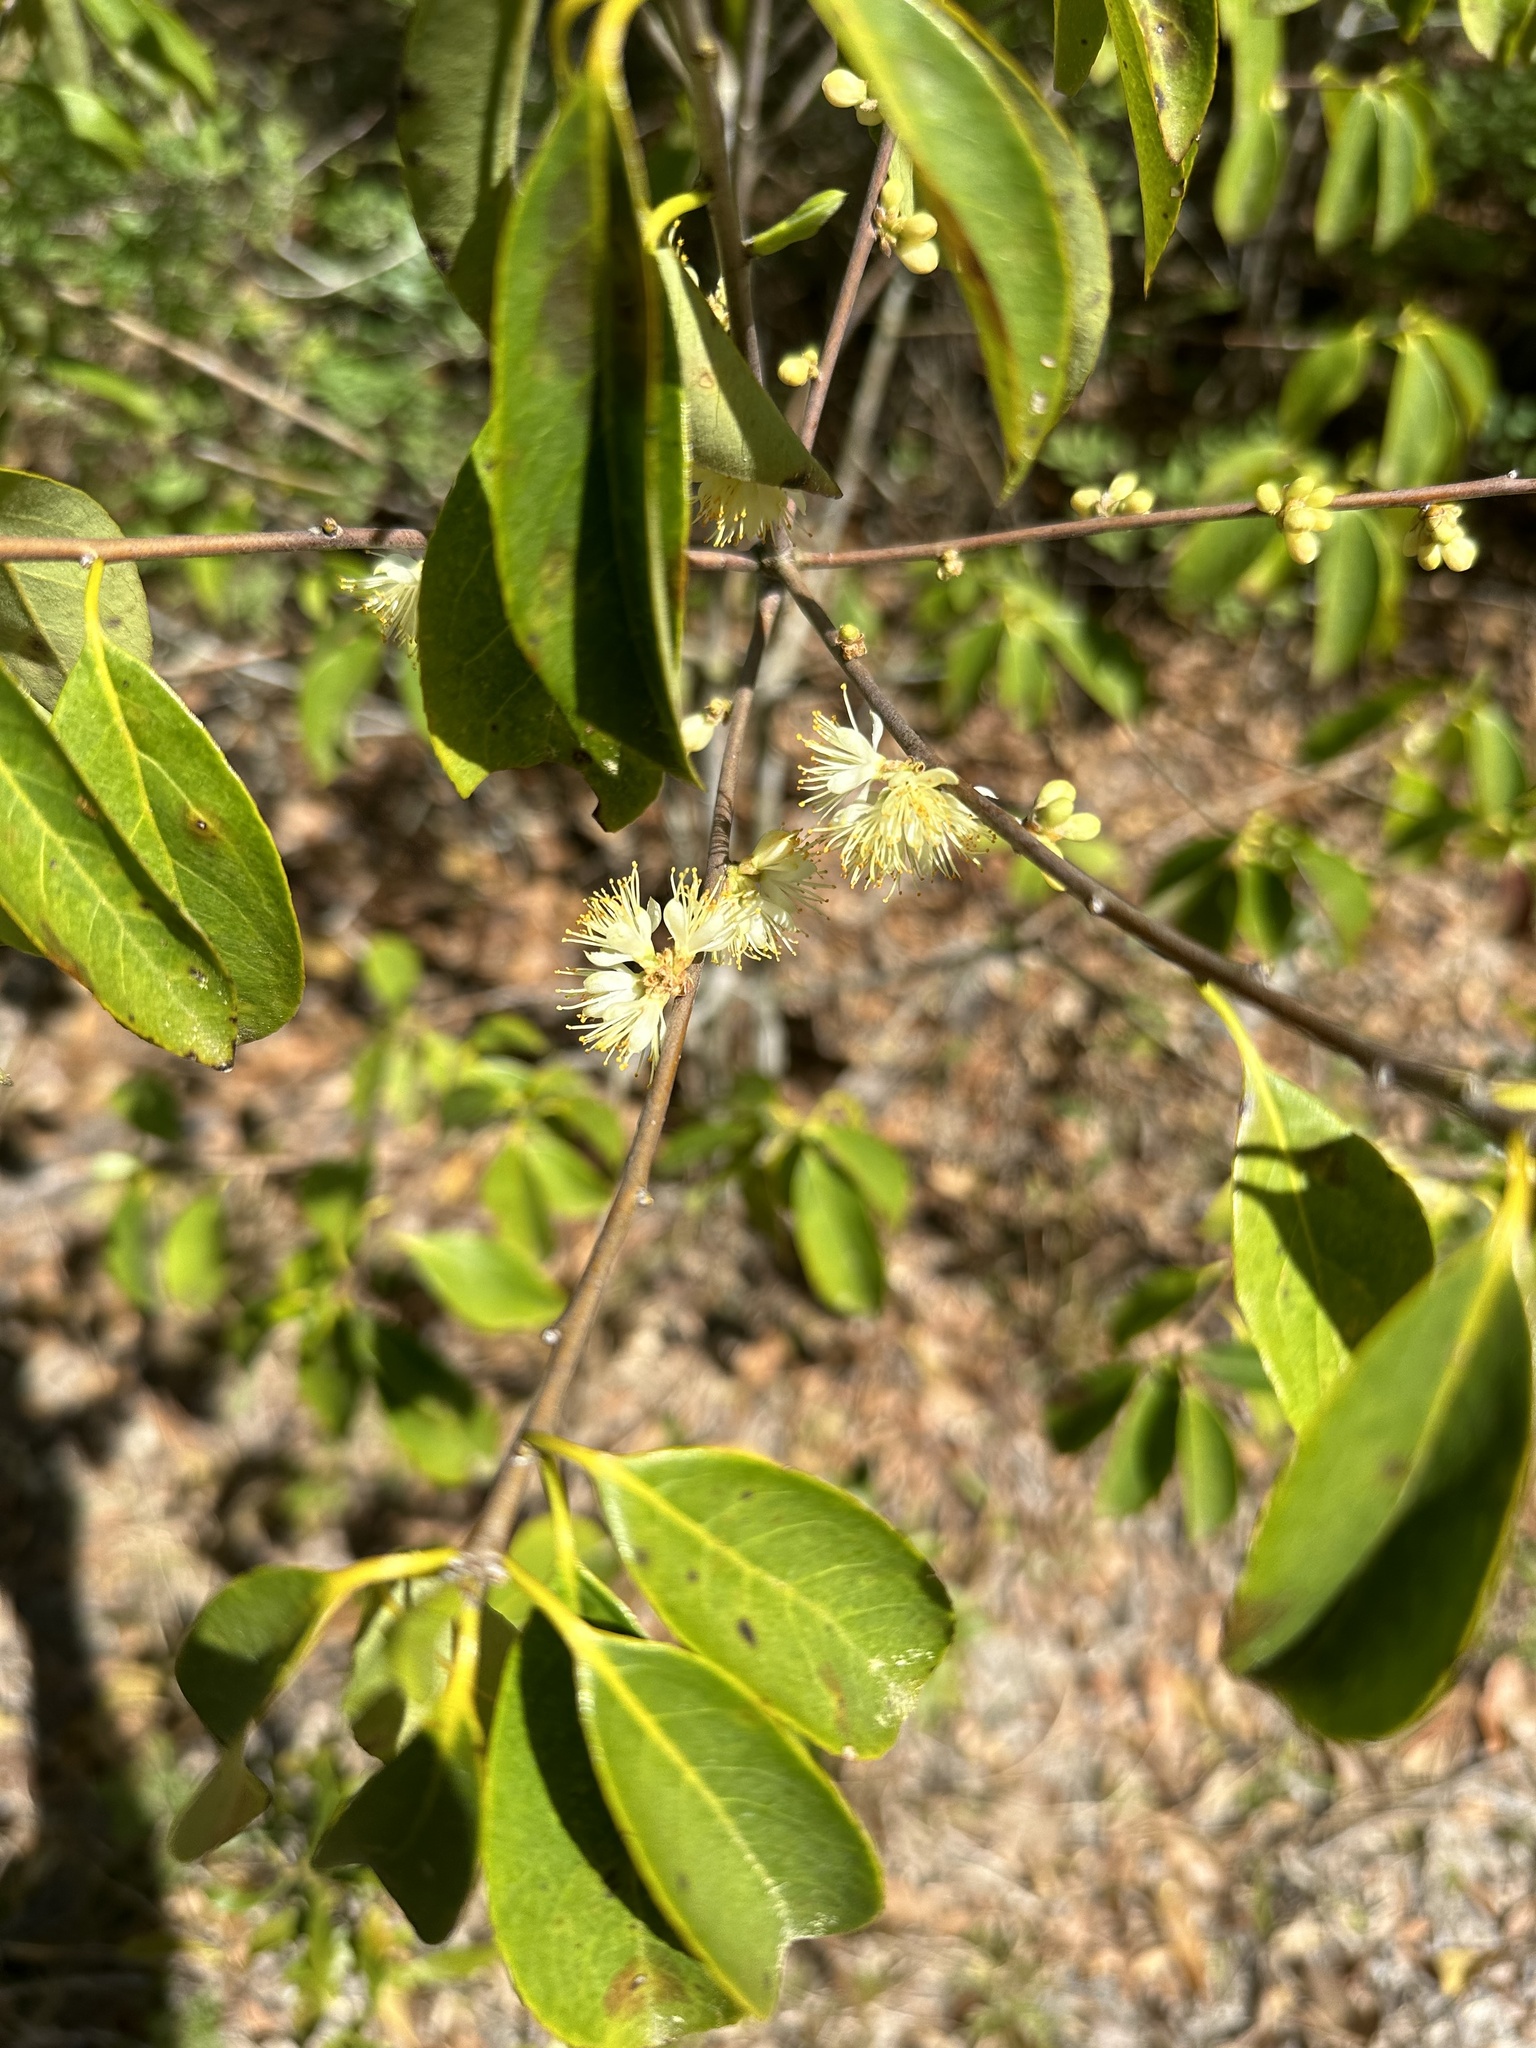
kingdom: Plantae
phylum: Tracheophyta
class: Magnoliopsida
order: Ericales
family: Symplocaceae
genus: Symplocos
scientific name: Symplocos tinctoria
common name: Horse-sugar
